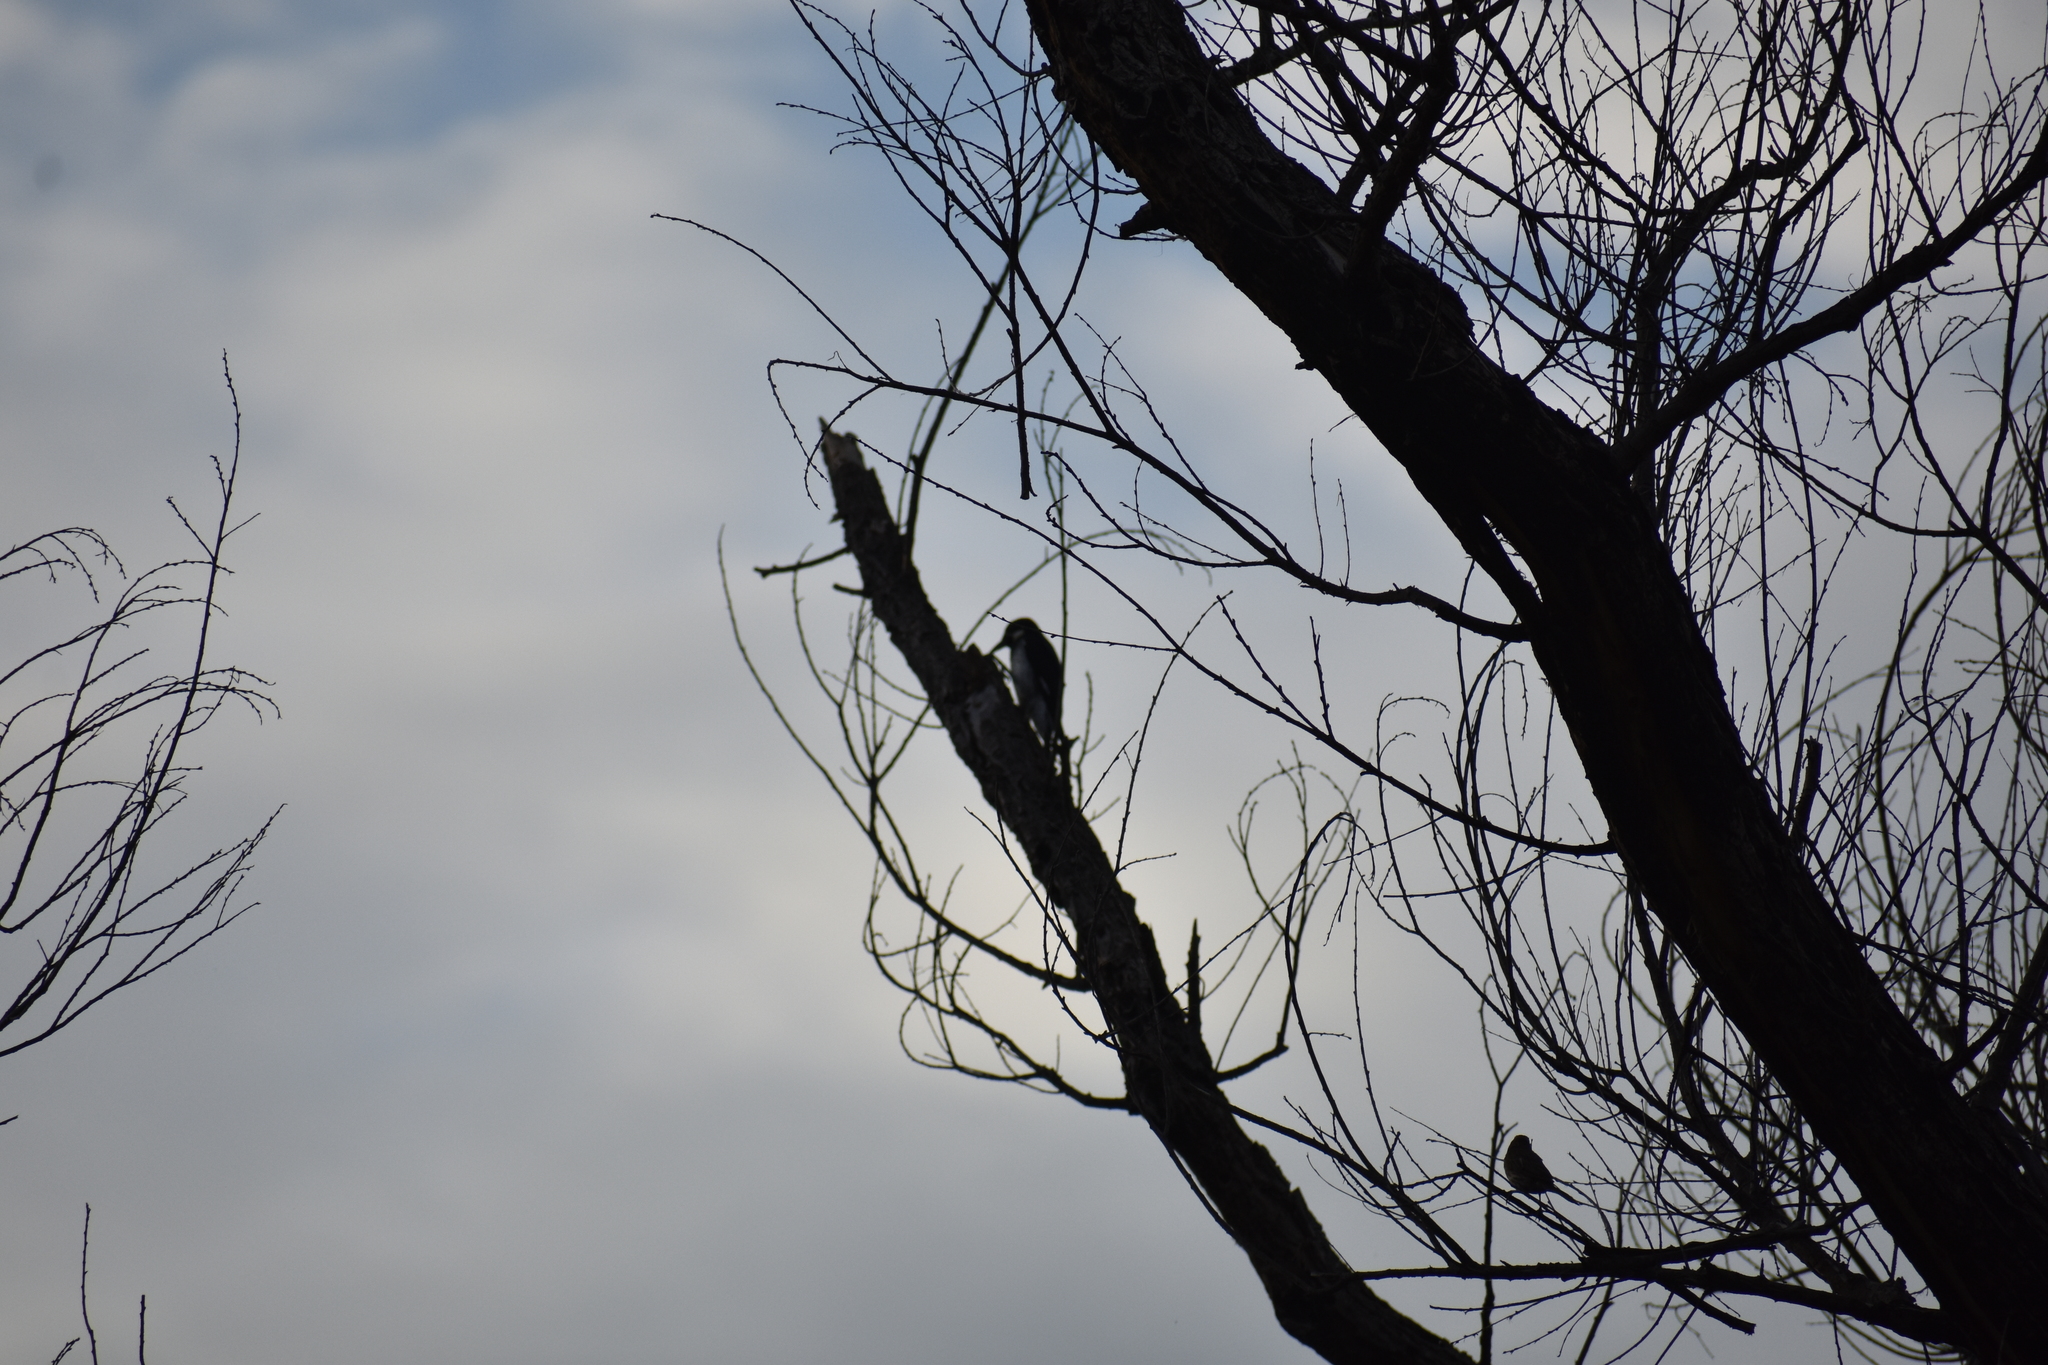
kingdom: Animalia
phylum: Chordata
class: Aves
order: Piciformes
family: Picidae
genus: Melanerpes
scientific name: Melanerpes formicivorus
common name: Acorn woodpecker
